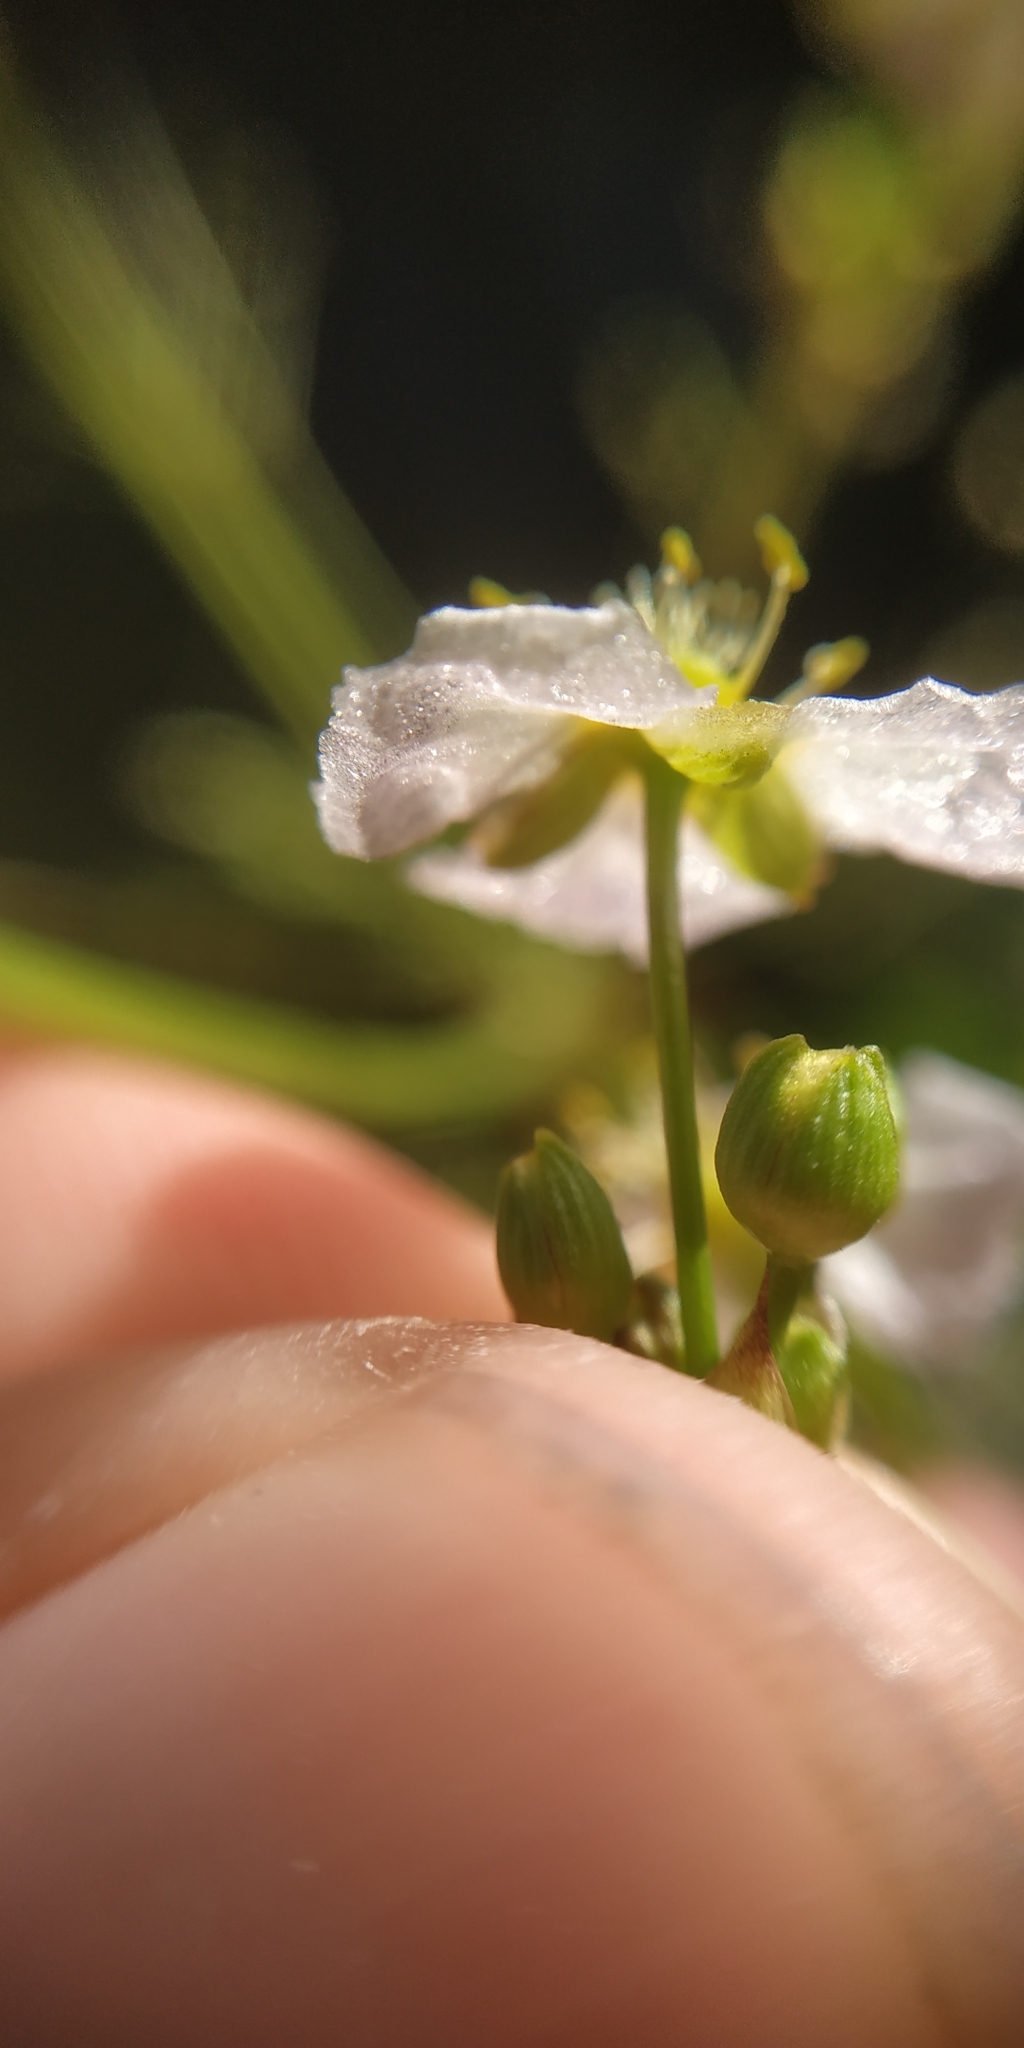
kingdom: Plantae
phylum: Tracheophyta
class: Liliopsida
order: Alismatales
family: Alismataceae
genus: Alisma
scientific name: Alisma plantago-aquatica
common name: Water-plantain
